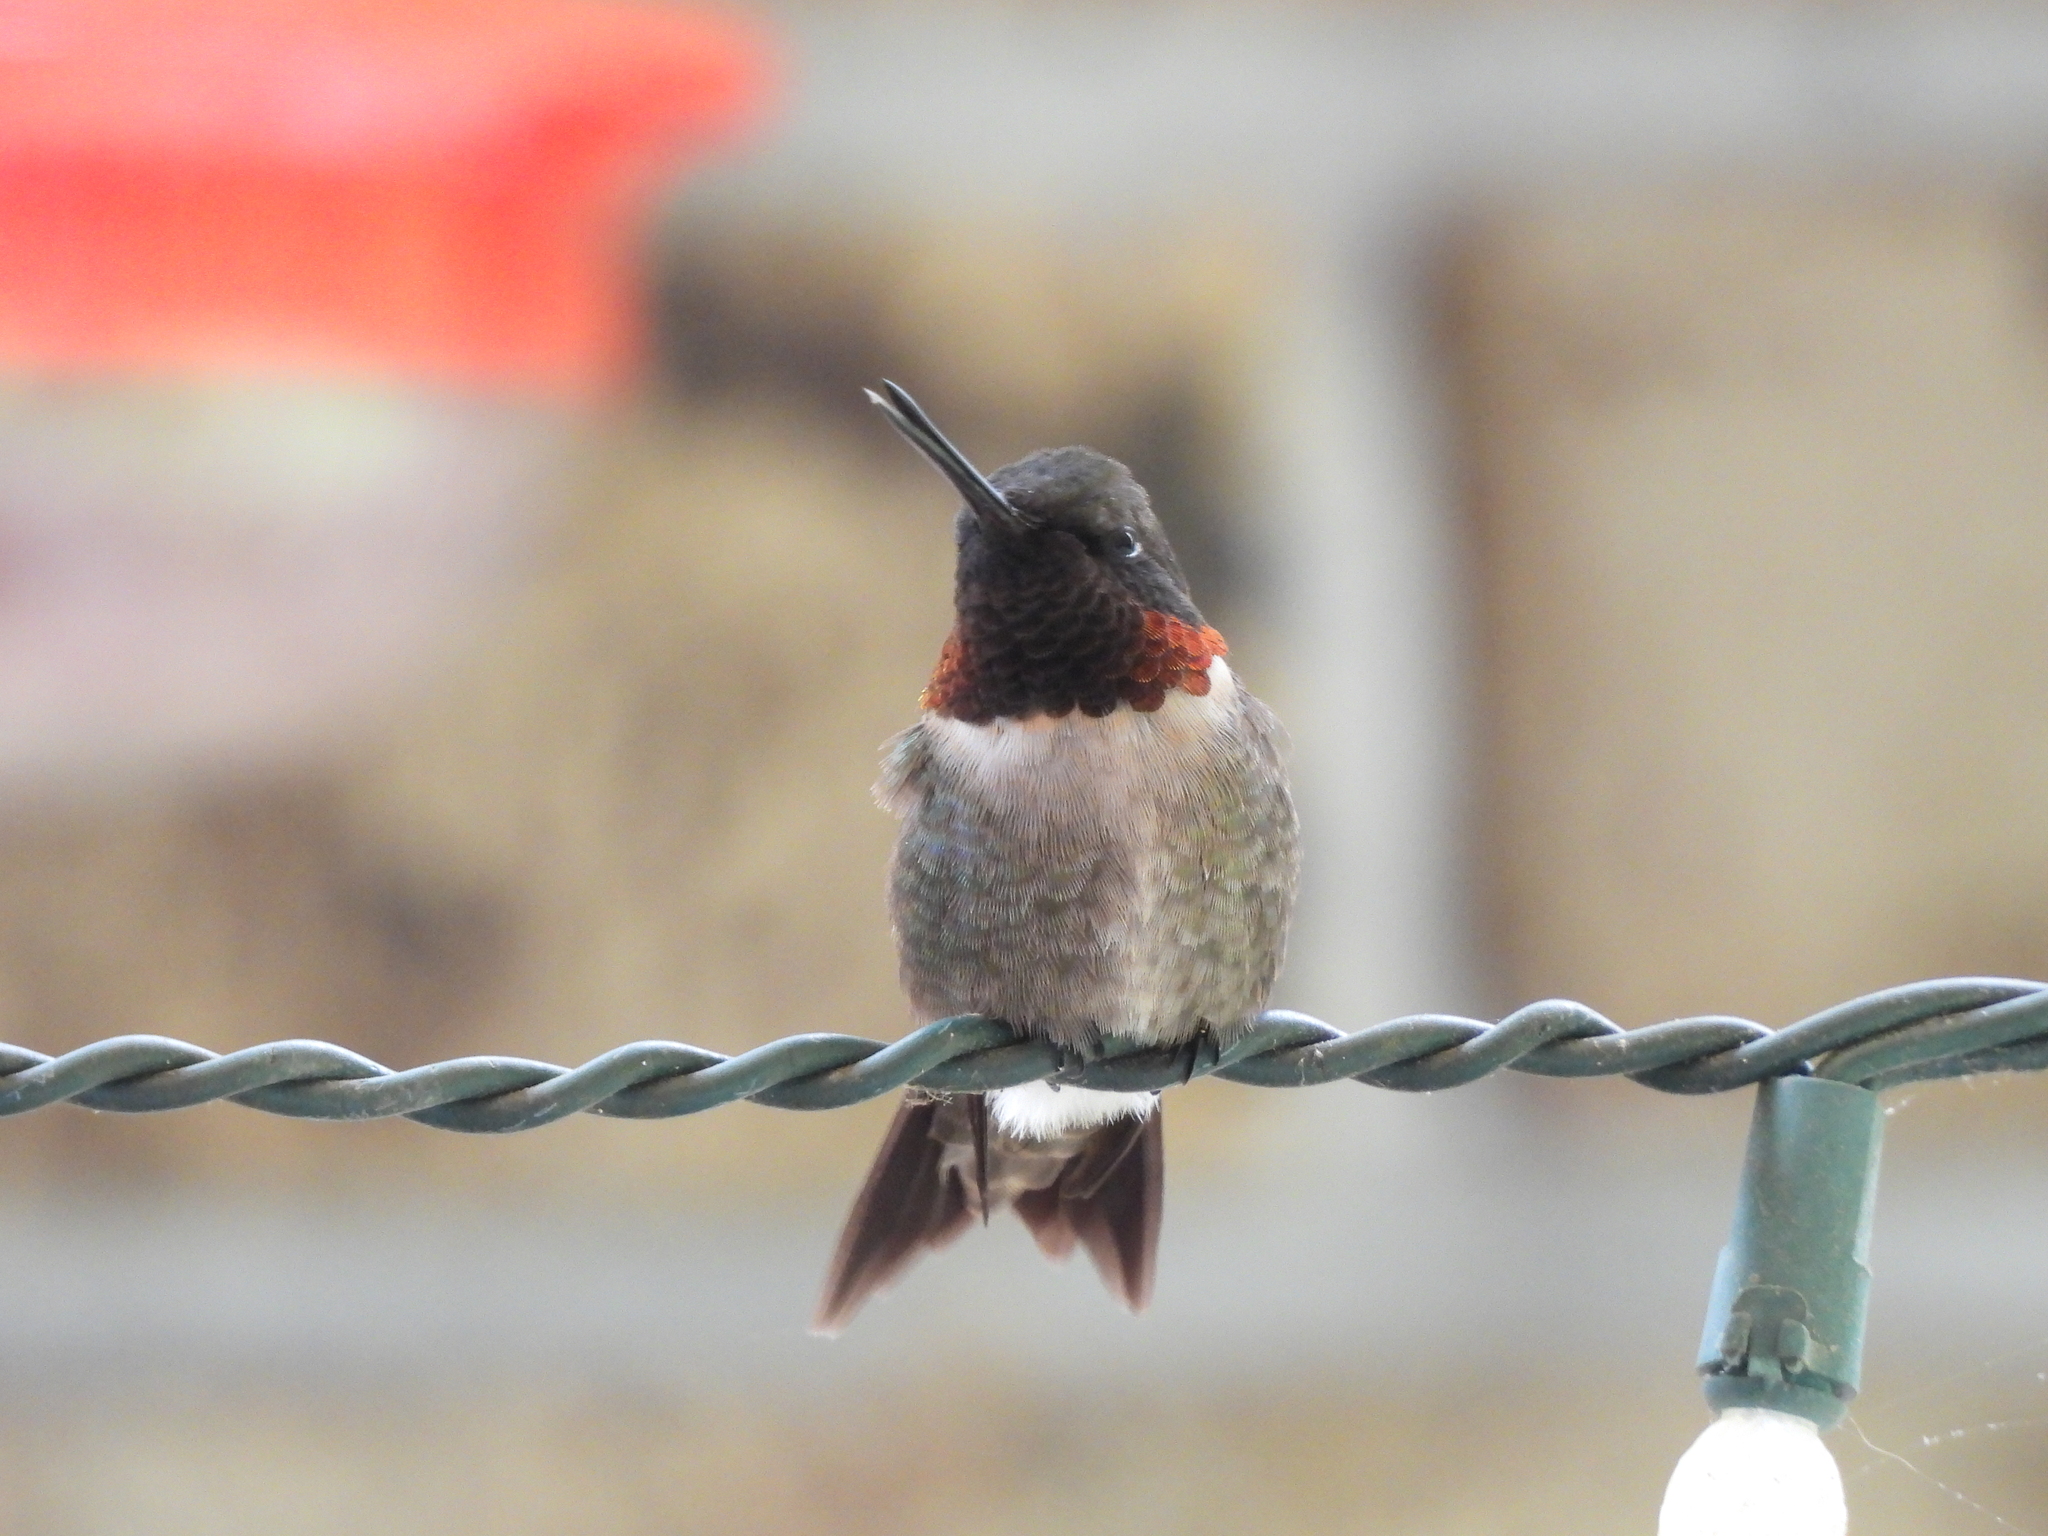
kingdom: Animalia
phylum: Chordata
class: Aves
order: Apodiformes
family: Trochilidae
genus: Archilochus
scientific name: Archilochus colubris
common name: Ruby-throated hummingbird
